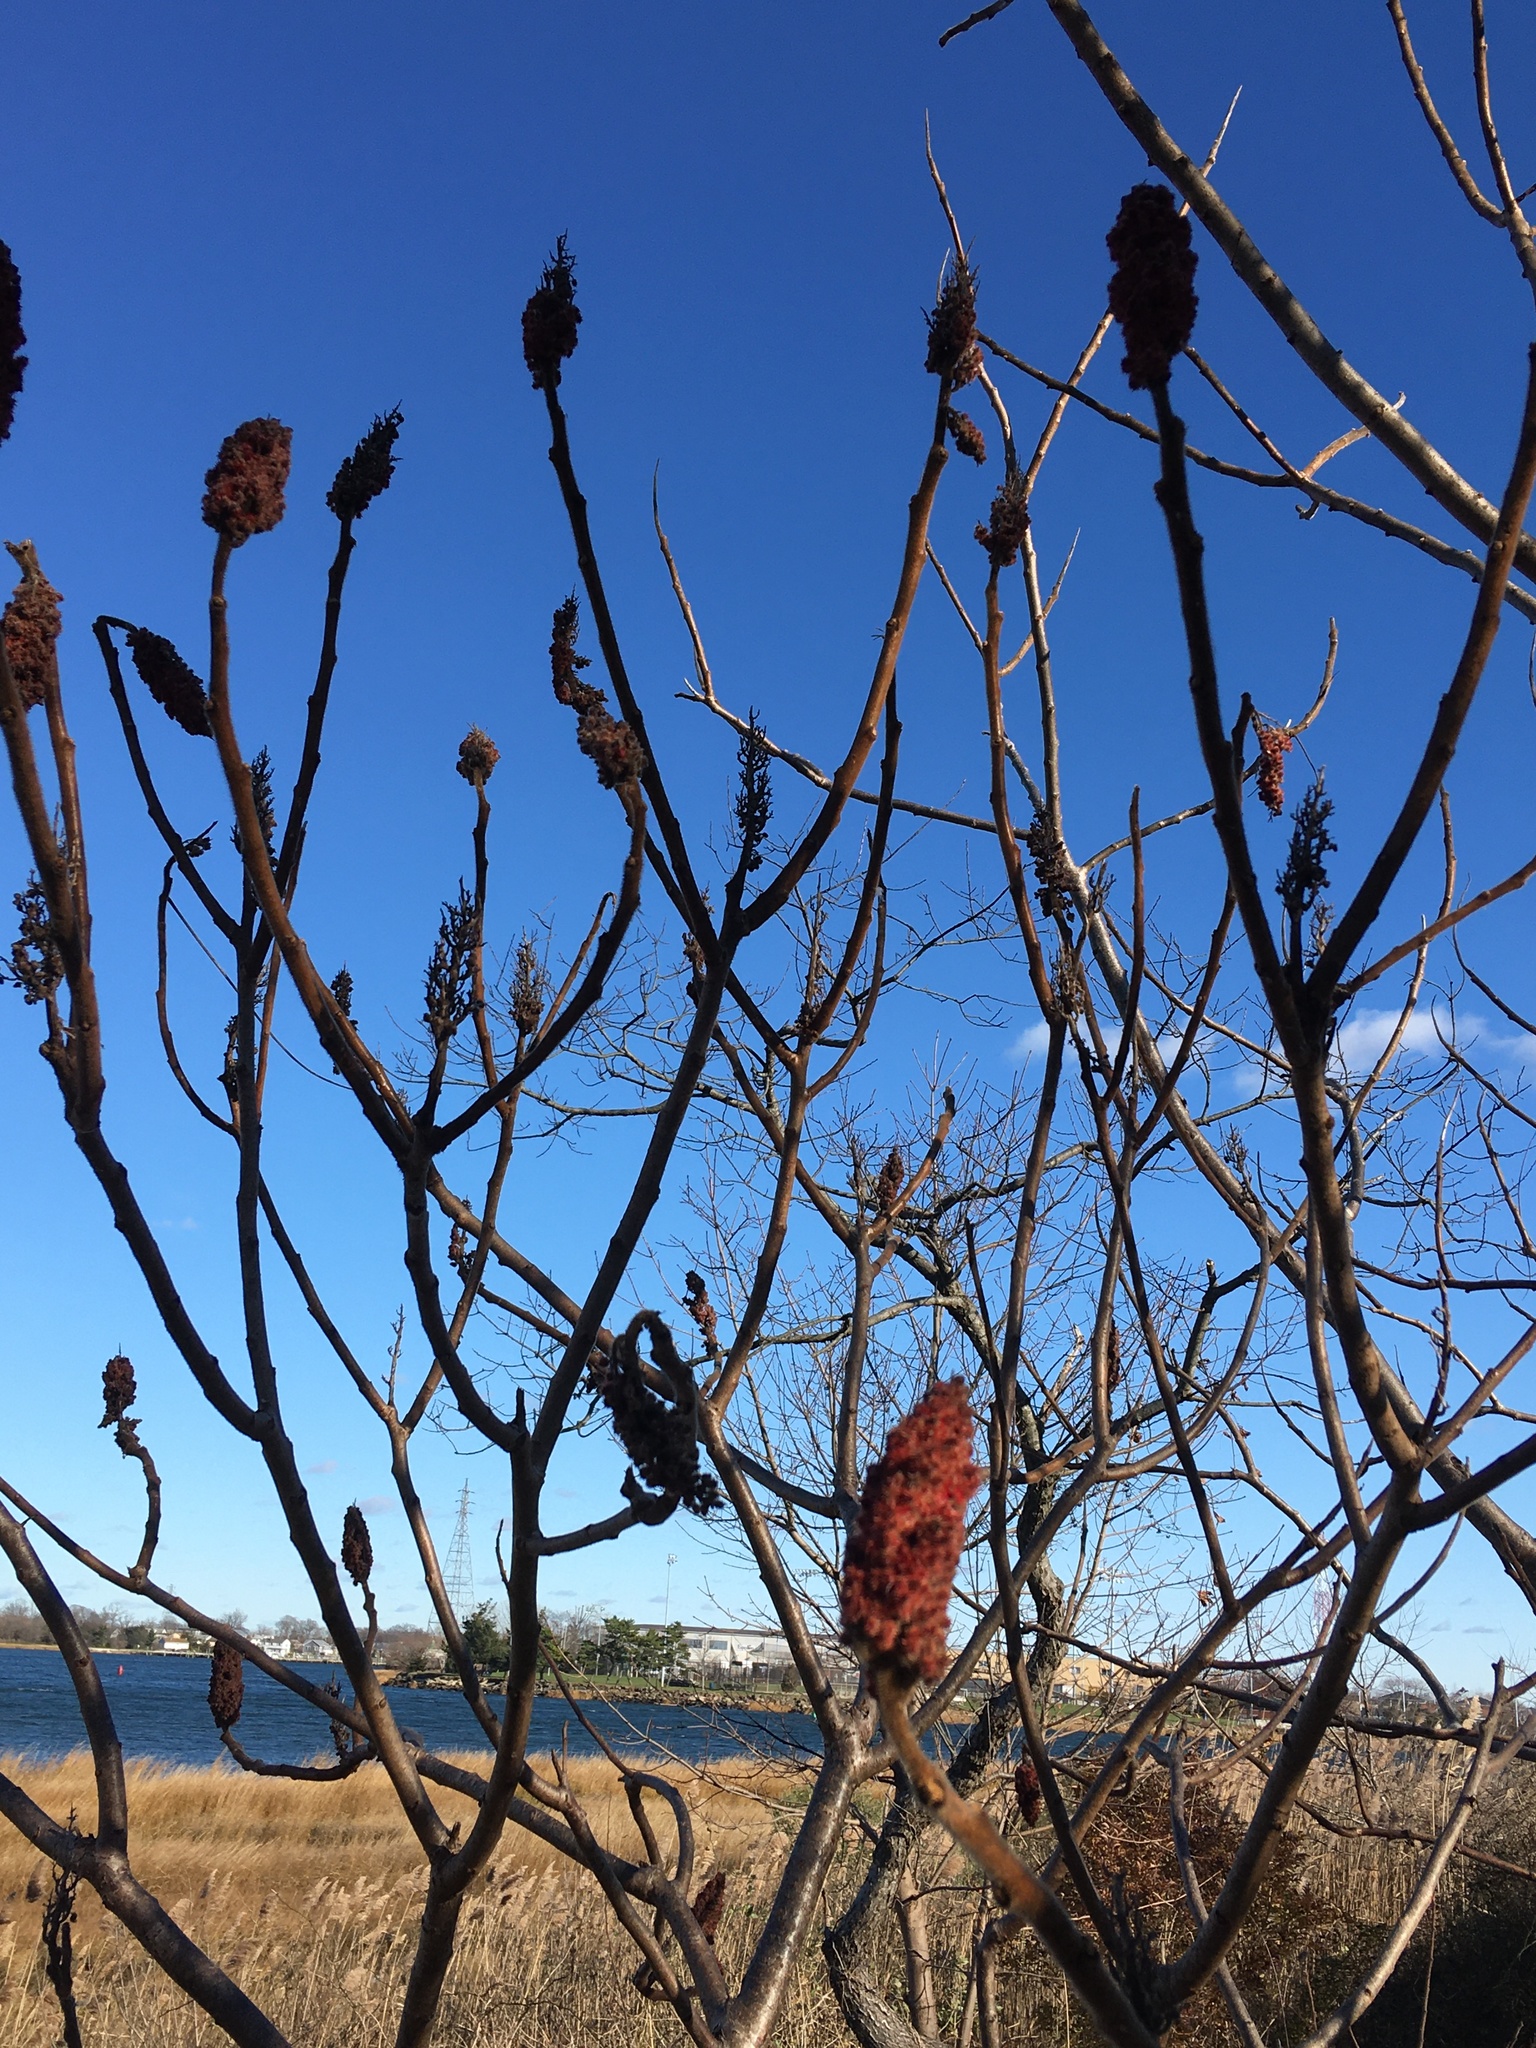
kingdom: Plantae
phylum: Tracheophyta
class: Magnoliopsida
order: Sapindales
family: Anacardiaceae
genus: Rhus
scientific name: Rhus typhina
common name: Staghorn sumac
